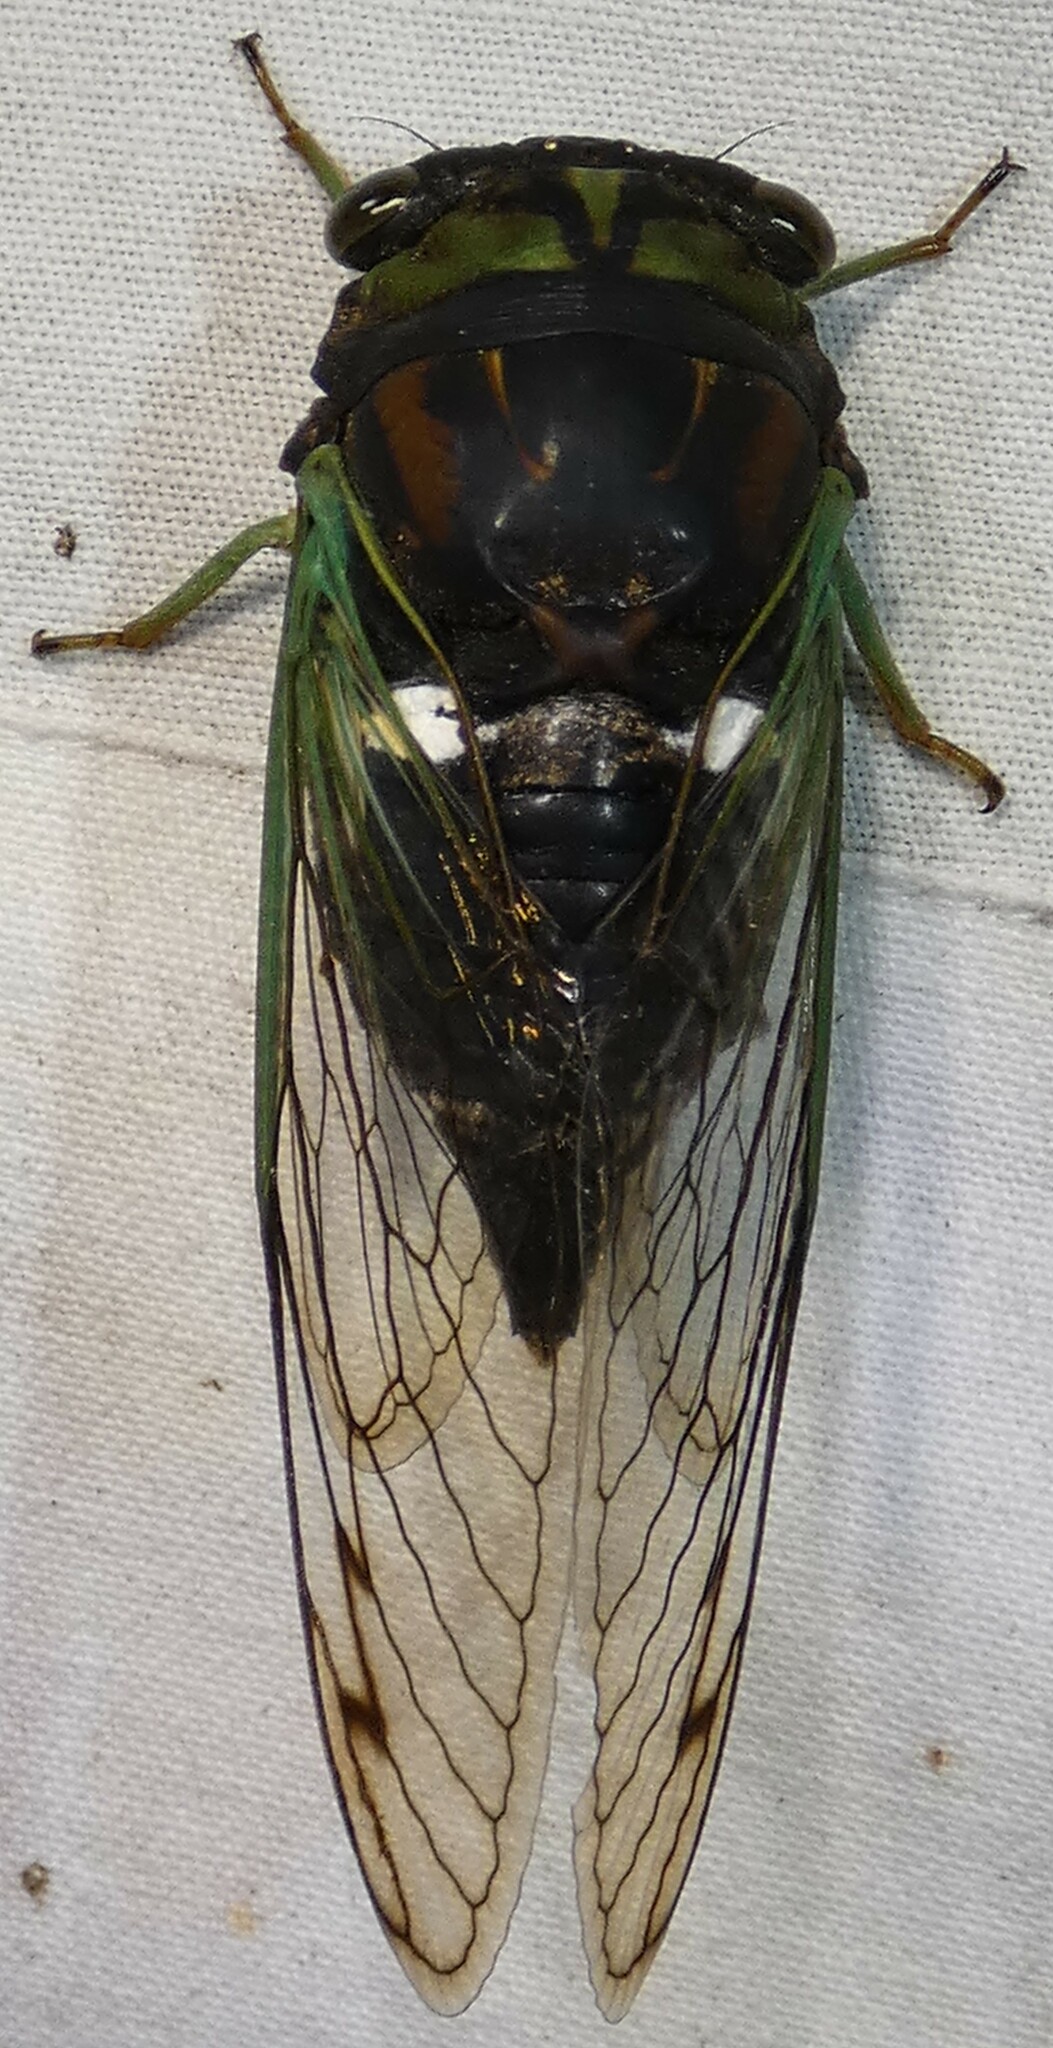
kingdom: Animalia
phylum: Arthropoda
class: Insecta
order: Hemiptera
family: Cicadidae
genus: Neotibicen
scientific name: Neotibicen tibicen
